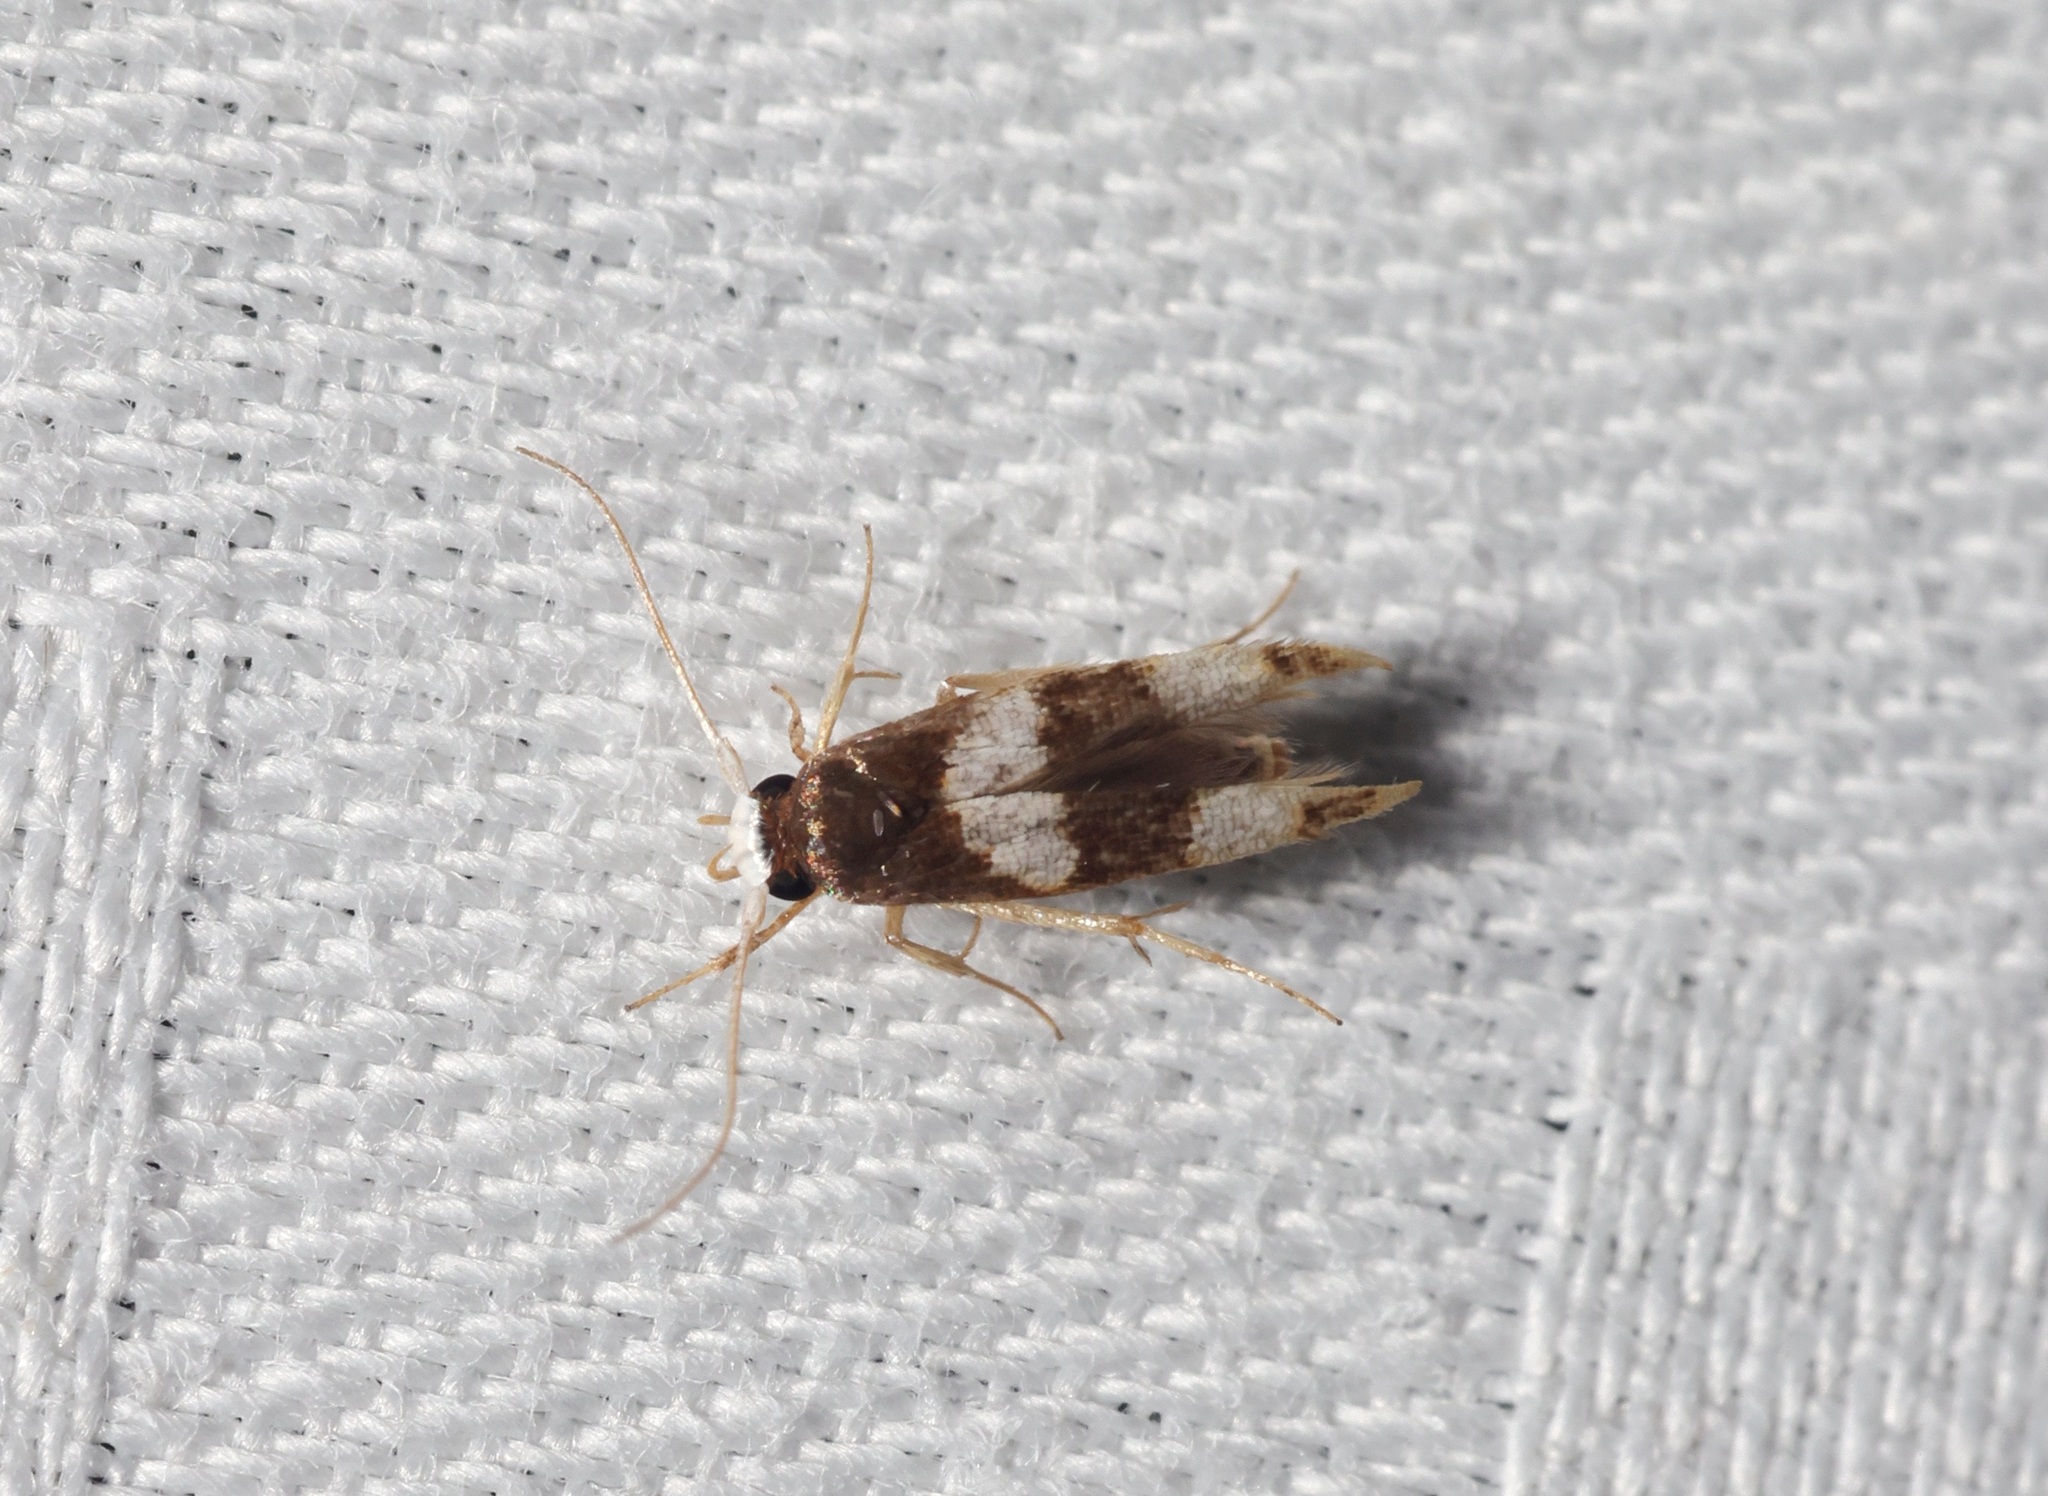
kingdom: Animalia
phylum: Arthropoda
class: Insecta
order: Lepidoptera
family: Stathmopodidae
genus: Stathmopoda
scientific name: Stathmopoda
